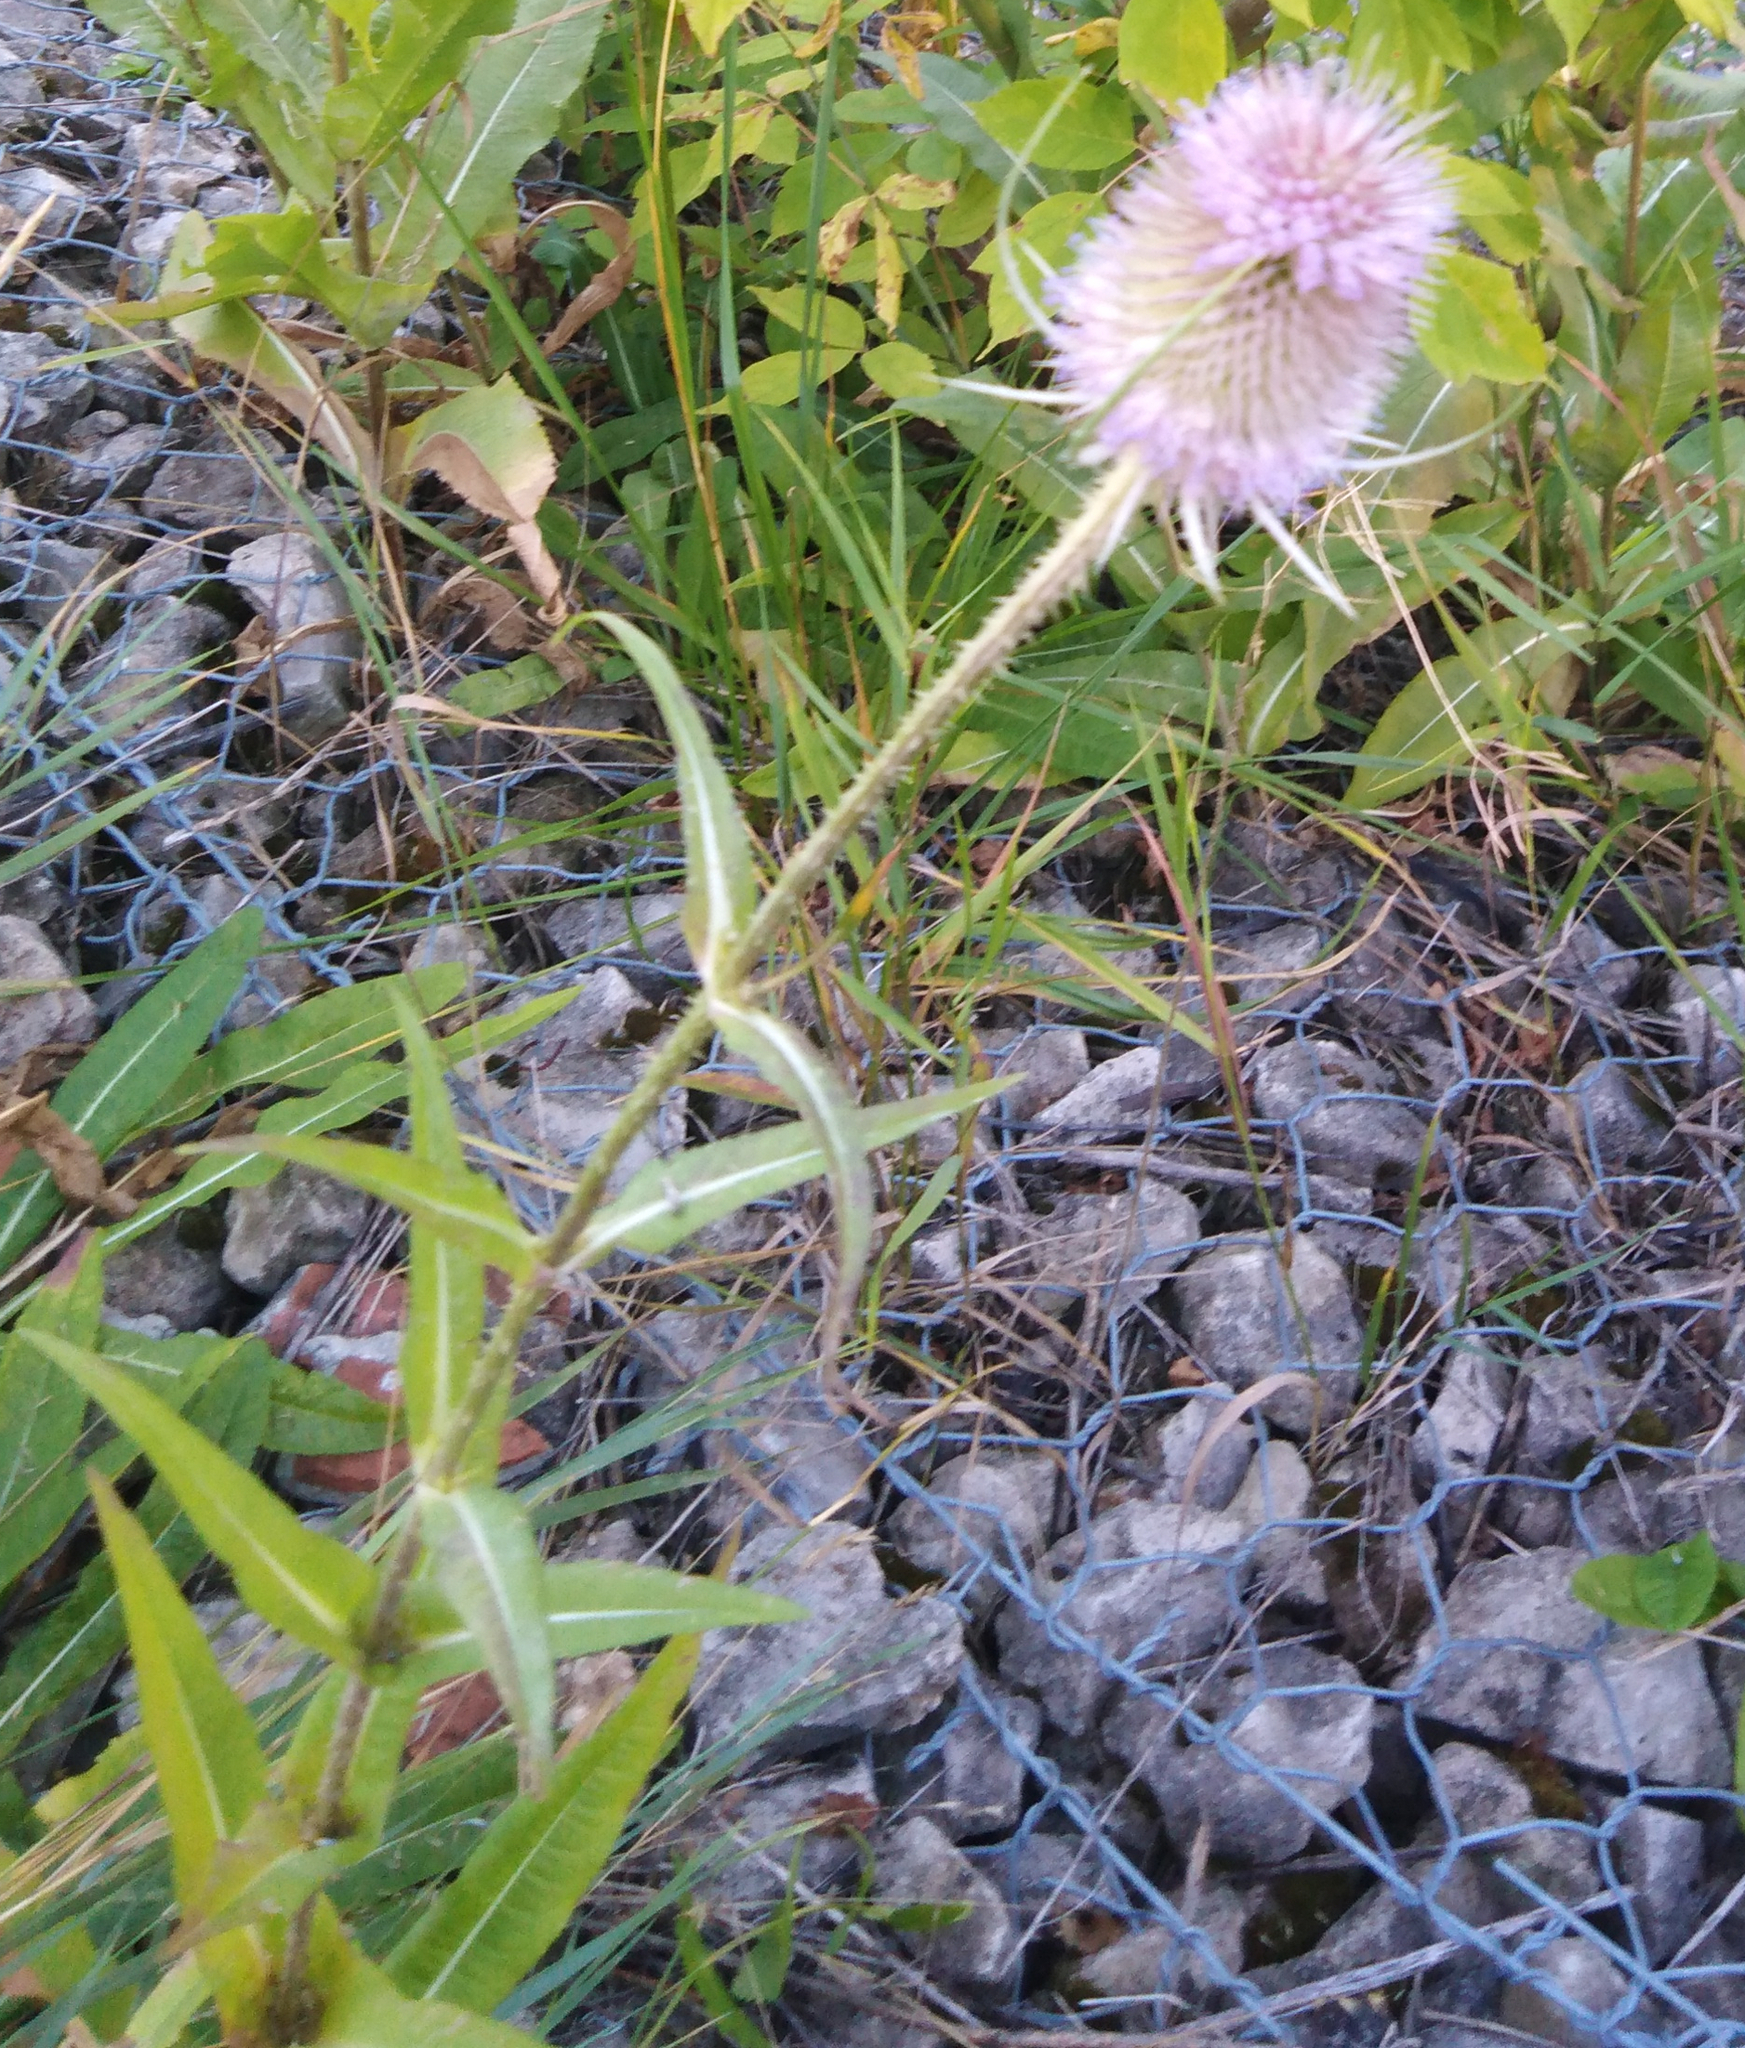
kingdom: Plantae
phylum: Tracheophyta
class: Magnoliopsida
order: Dipsacales
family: Caprifoliaceae
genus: Dipsacus
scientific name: Dipsacus fullonum
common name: Teasel
